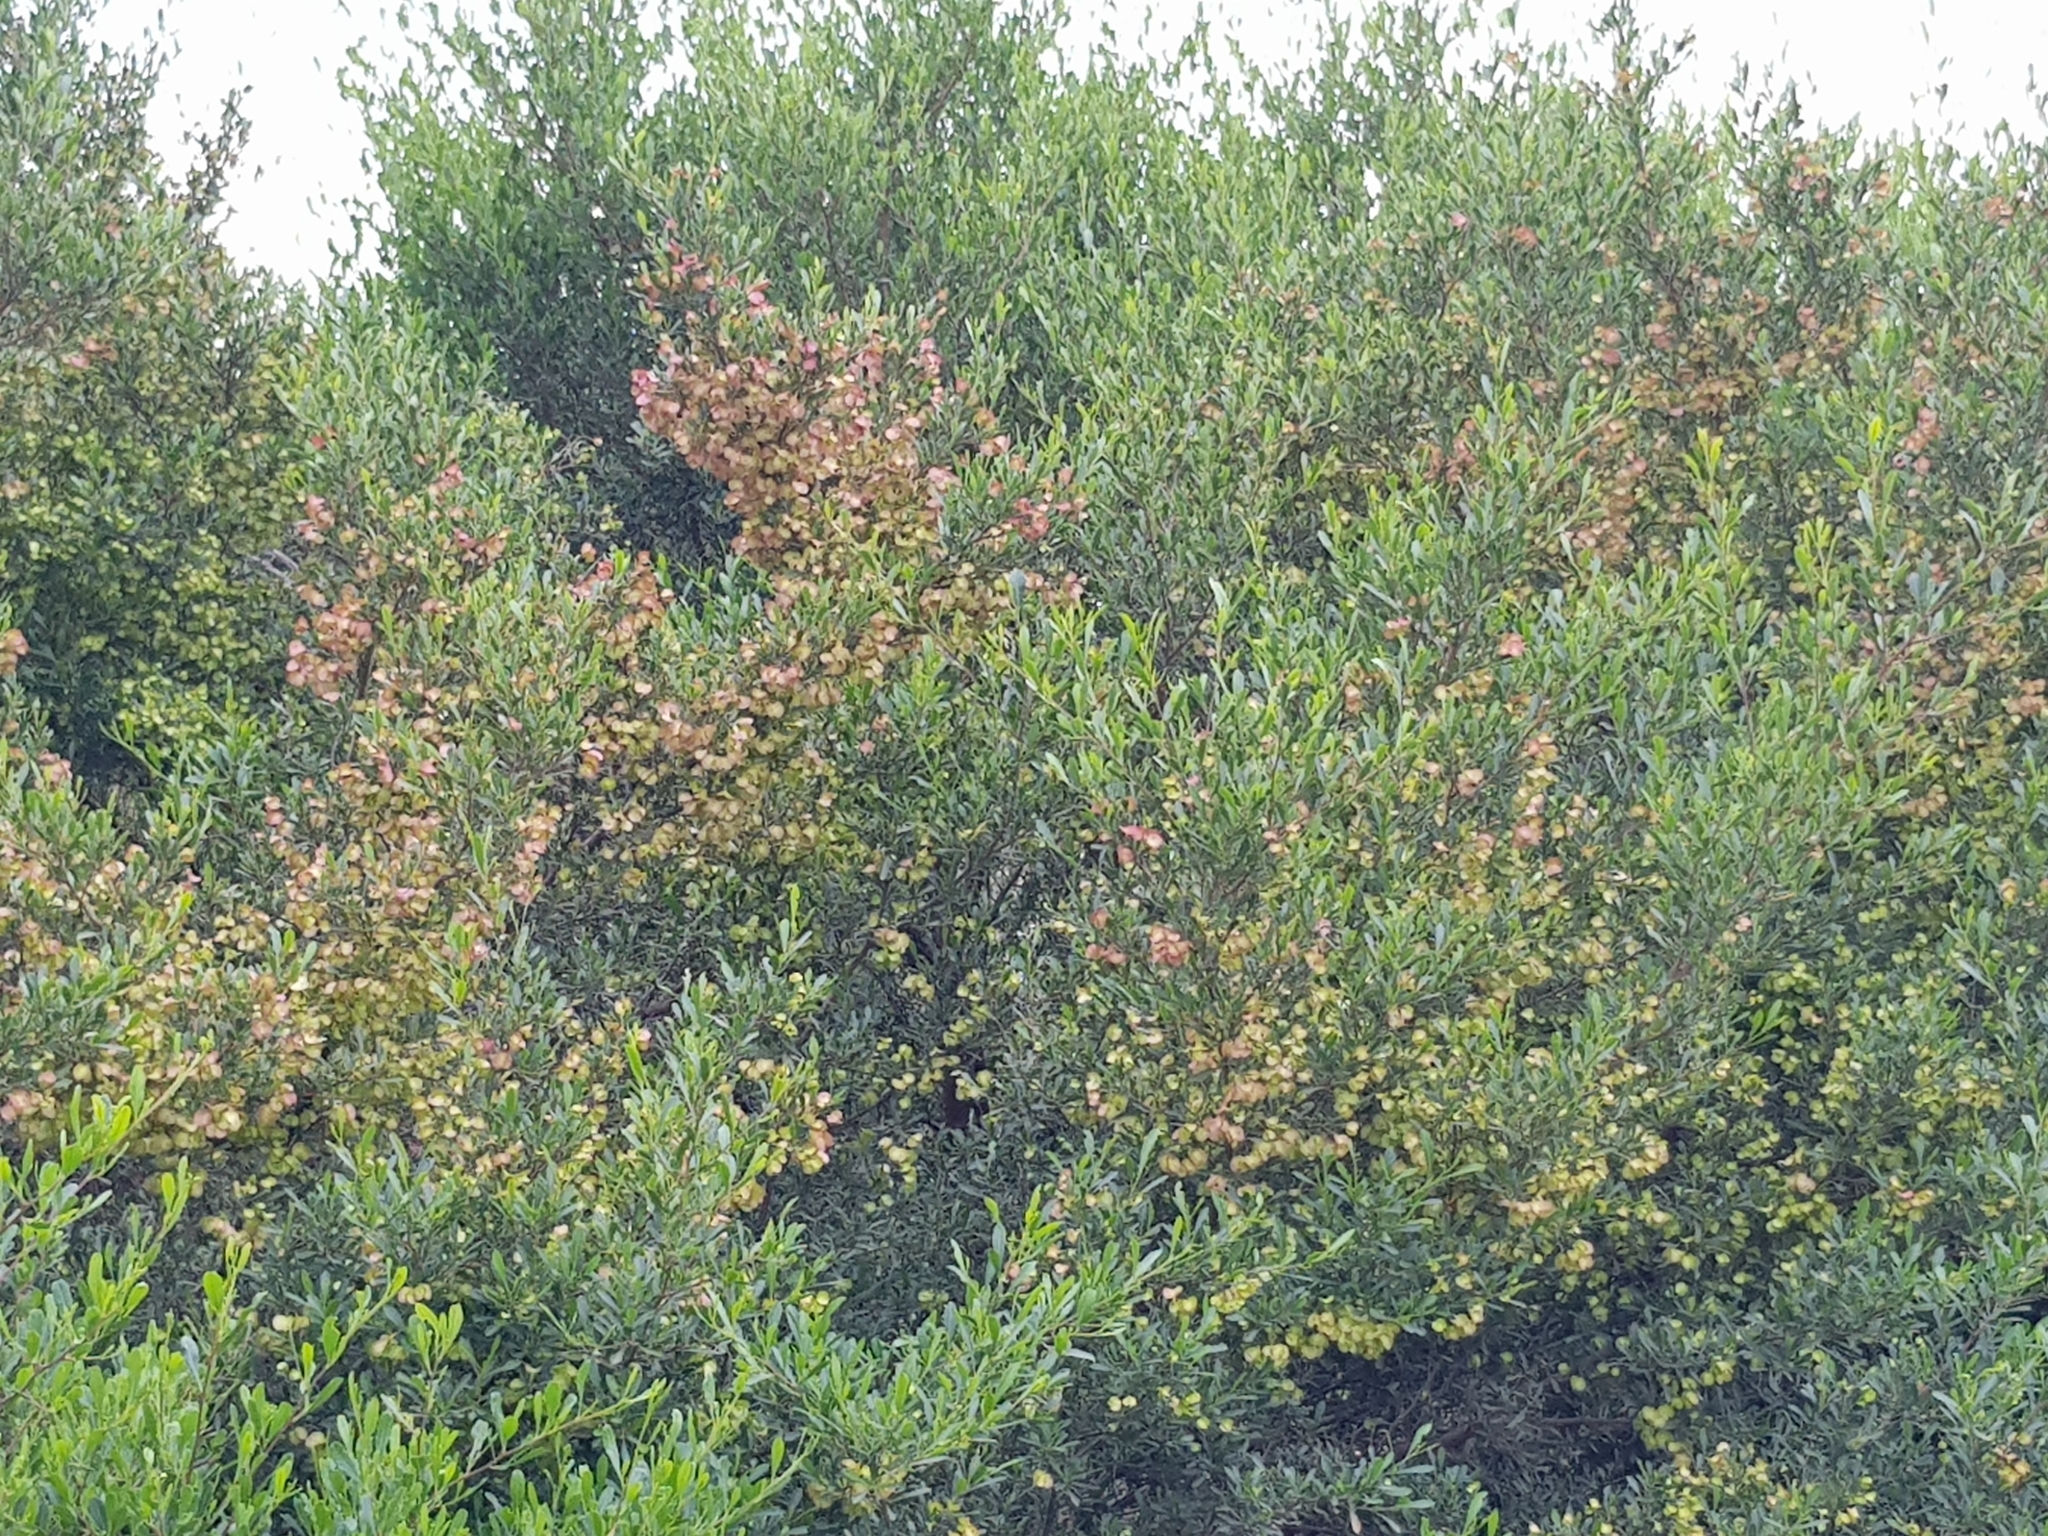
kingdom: Plantae
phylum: Tracheophyta
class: Magnoliopsida
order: Sapindales
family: Sapindaceae
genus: Dodonaea
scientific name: Dodonaea viscosa
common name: Hopbush
